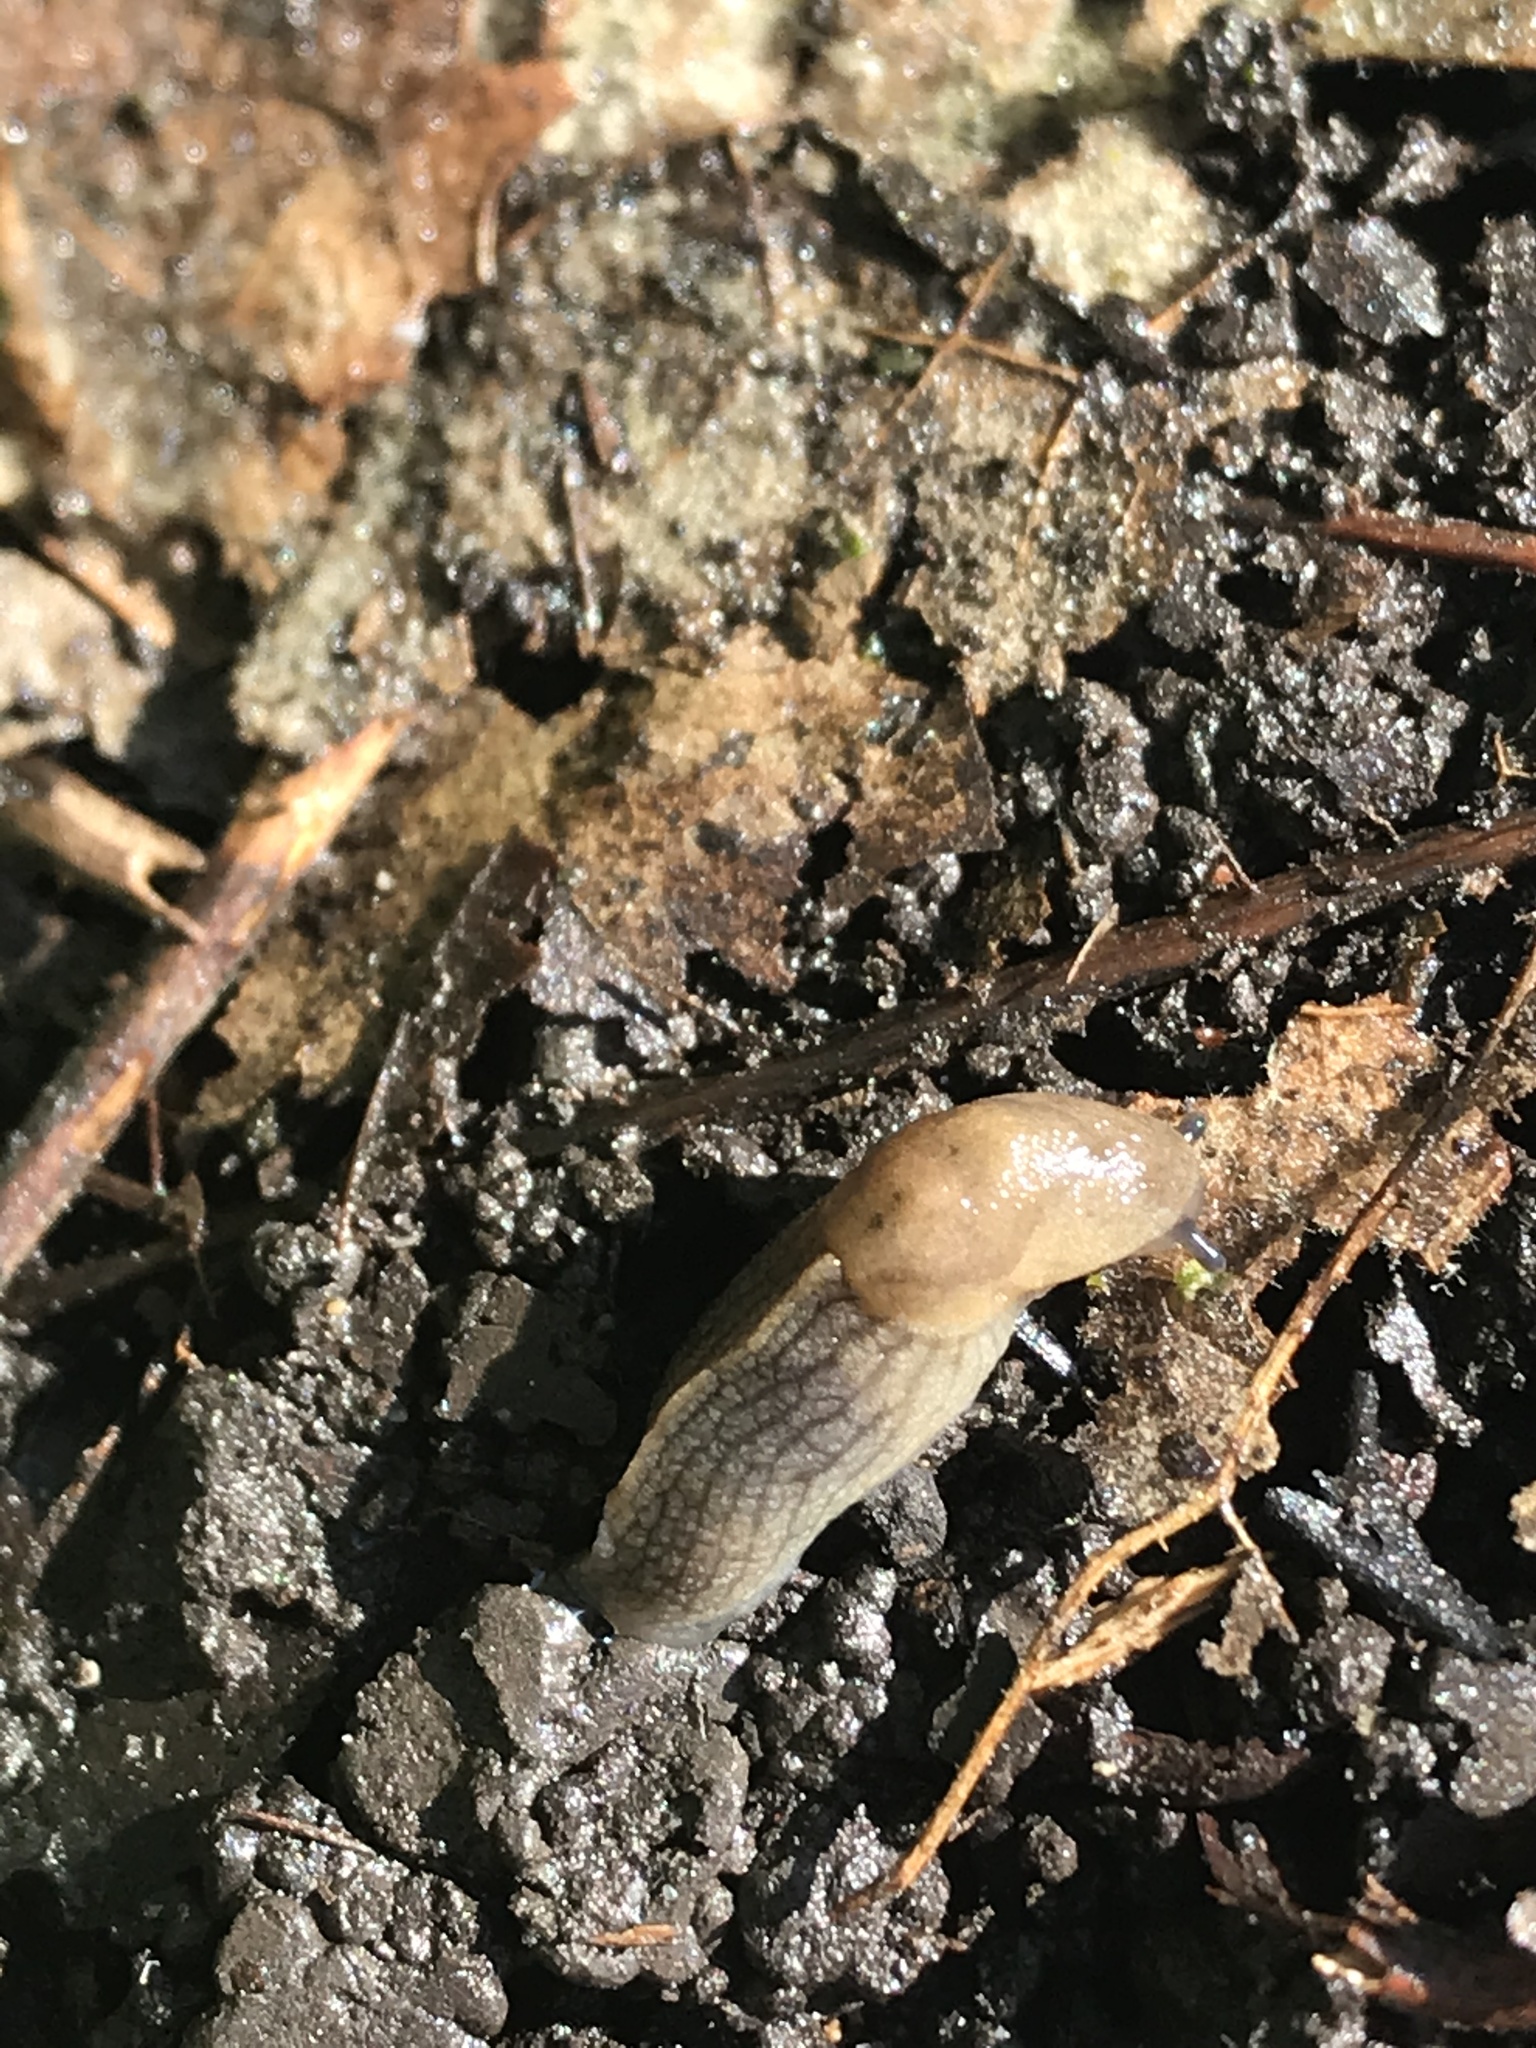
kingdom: Animalia
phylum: Mollusca
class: Gastropoda
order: Stylommatophora
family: Milacidae
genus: Milax
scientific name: Milax gagates
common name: Greenhouse slug
